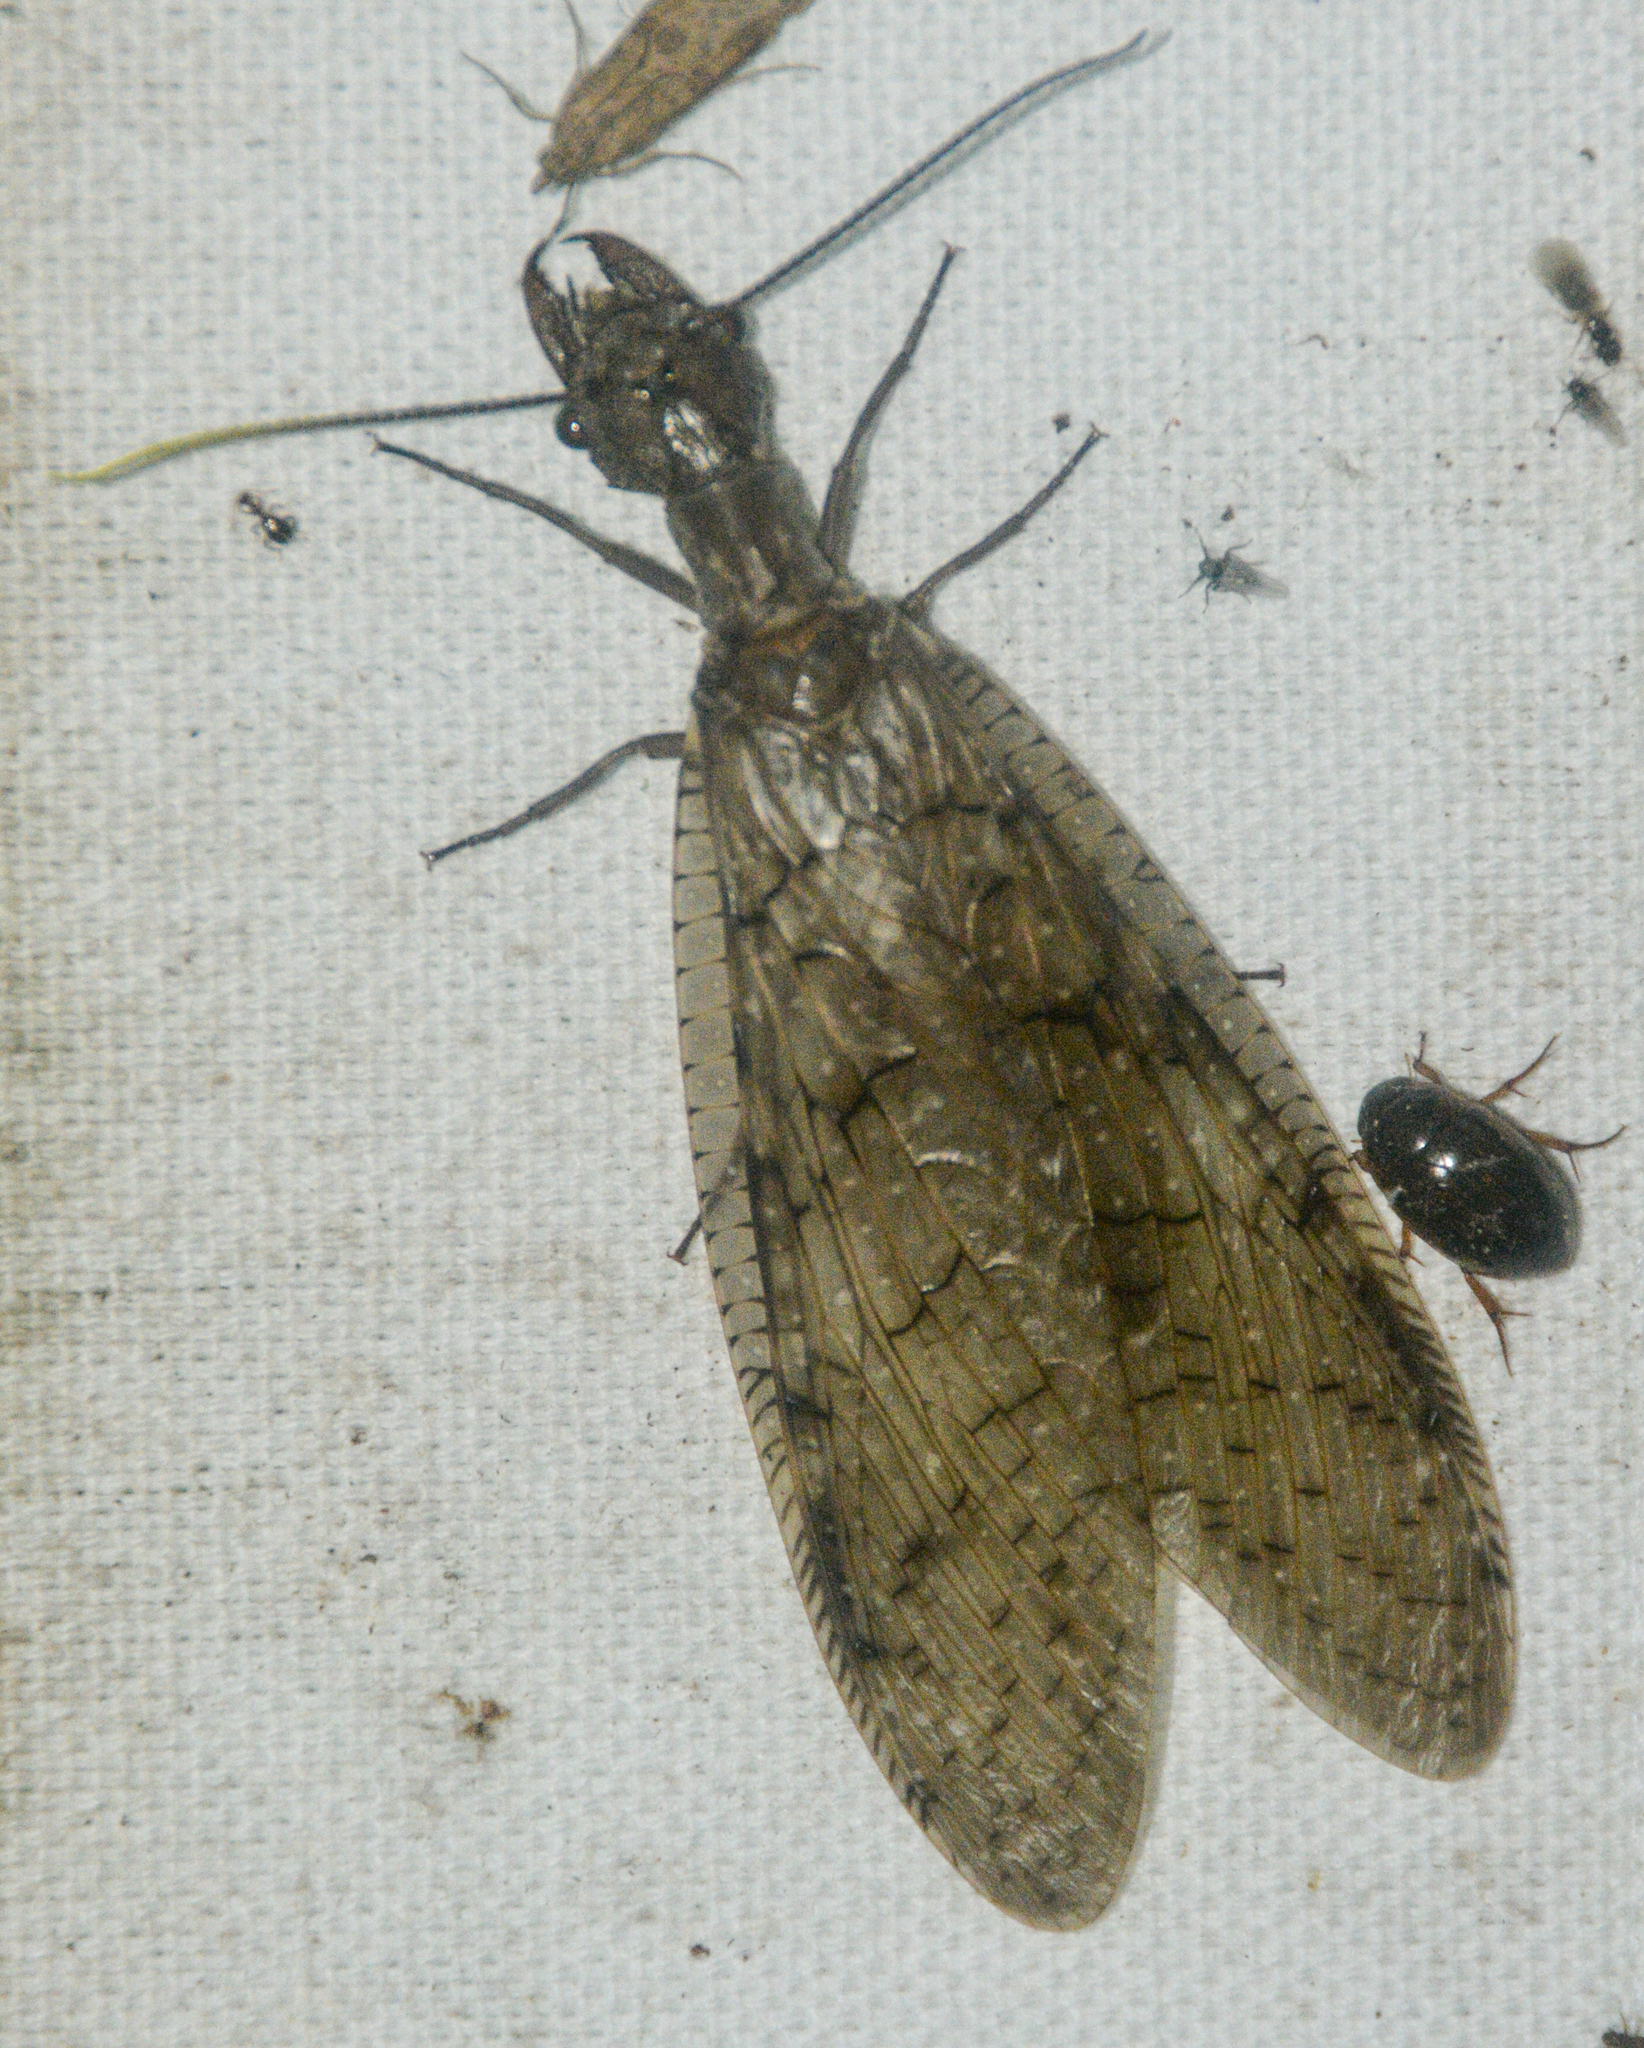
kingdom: Animalia
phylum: Arthropoda
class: Insecta
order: Megaloptera
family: Corydalidae
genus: Corydalus
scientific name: Corydalus cornutus
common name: Dobsonfly
